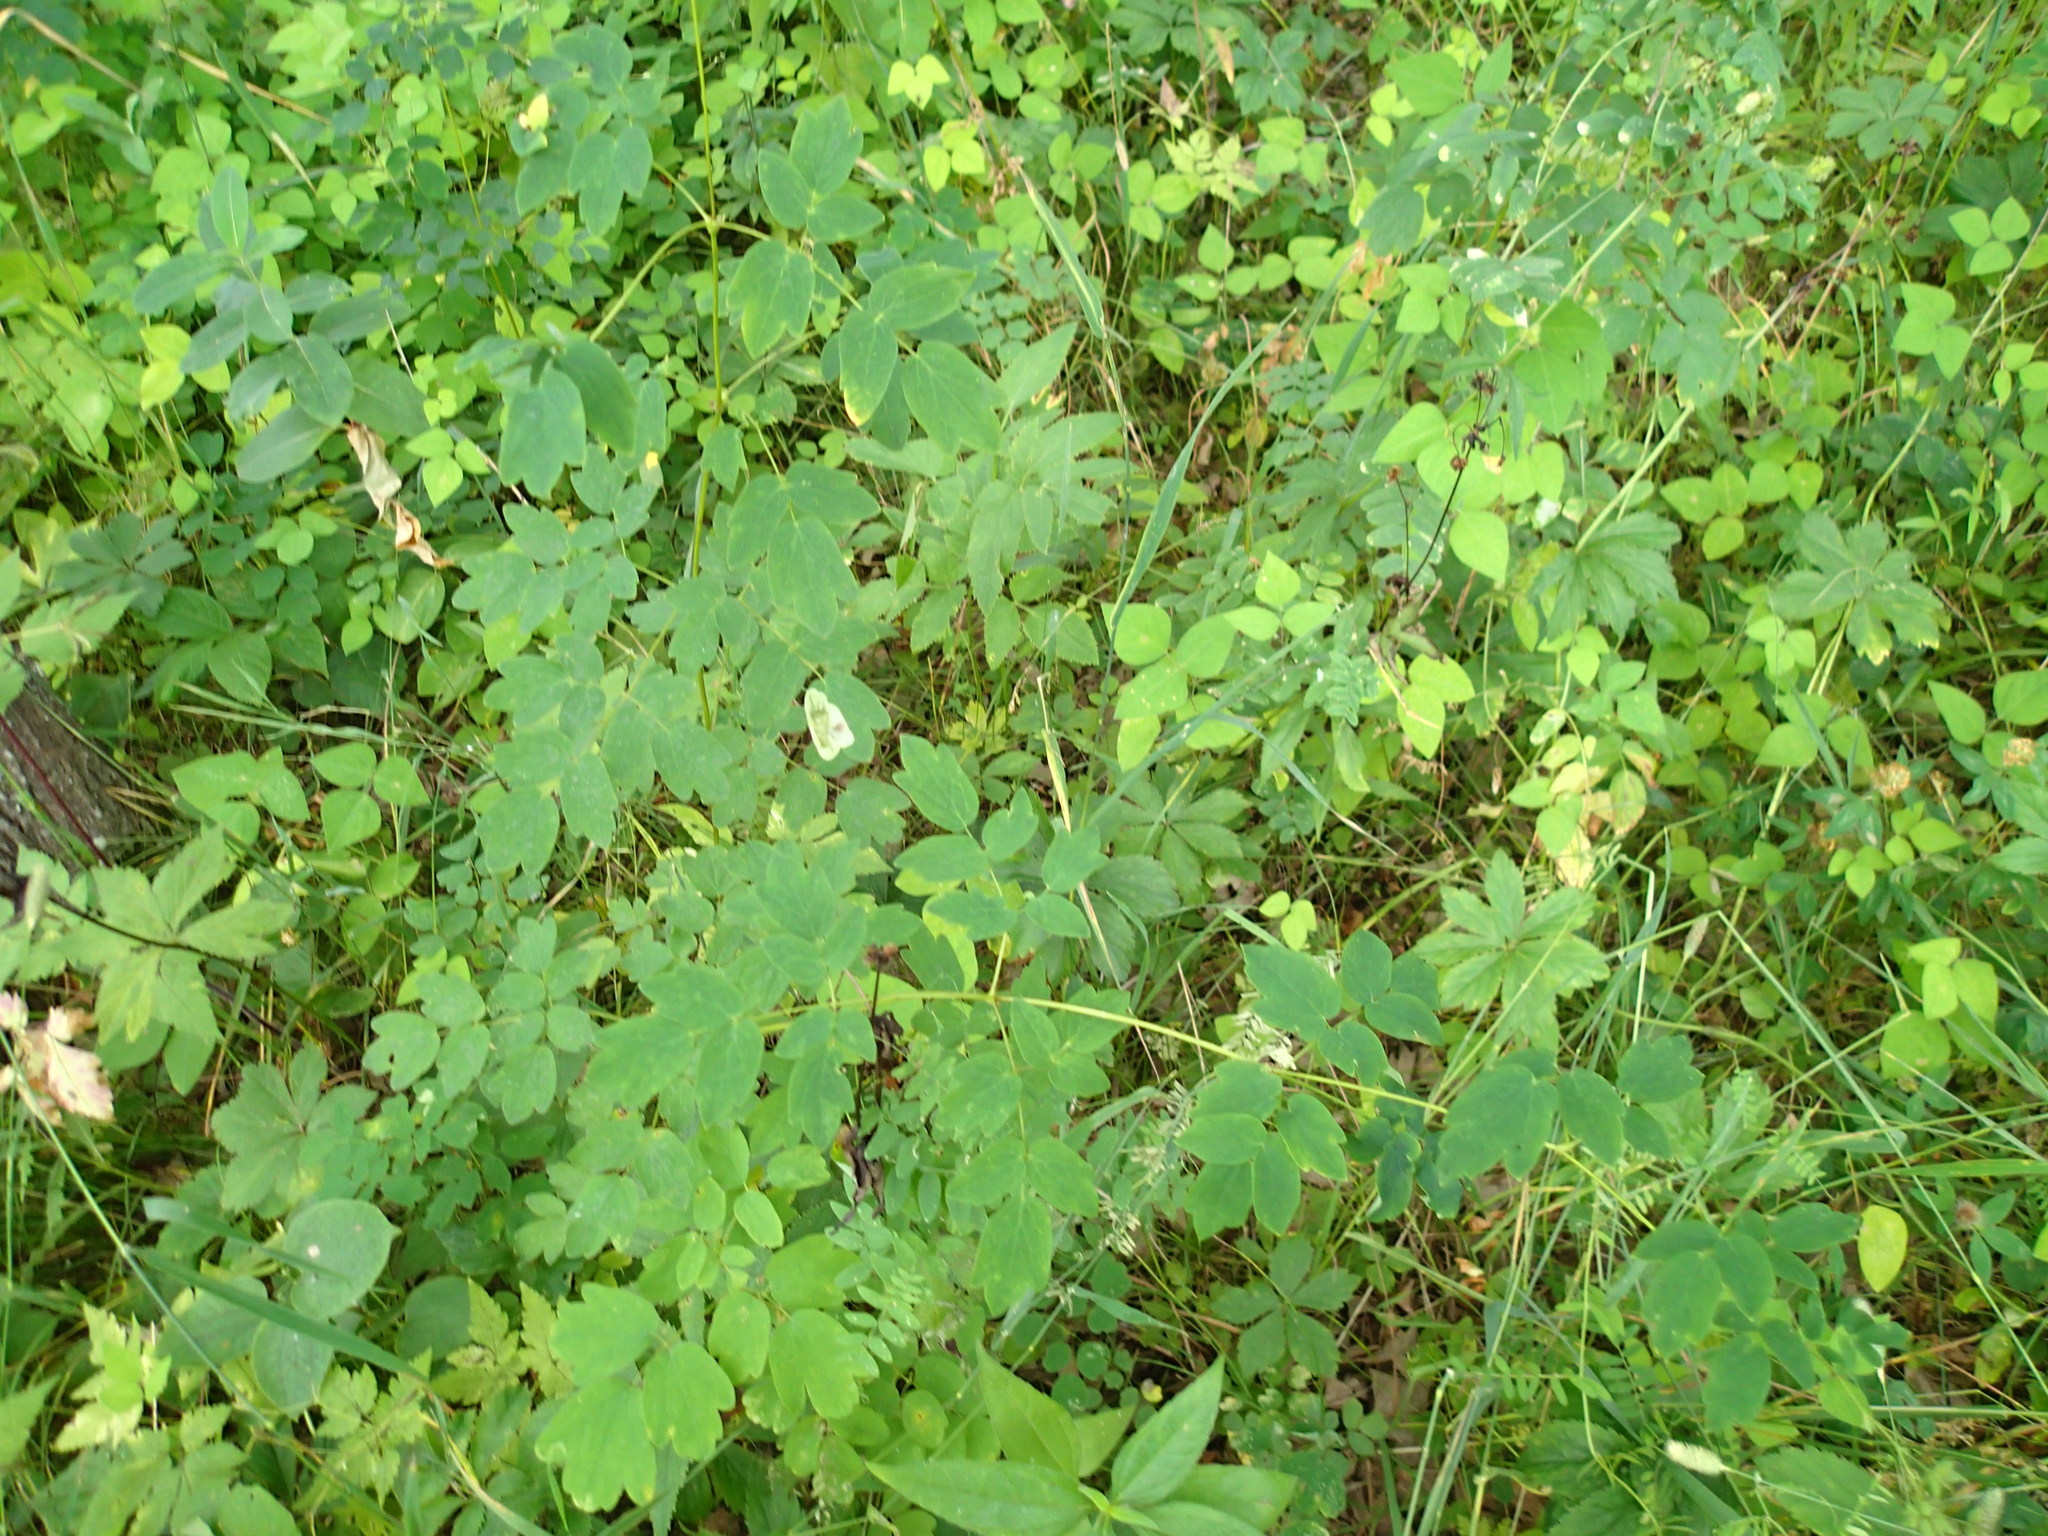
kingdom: Plantae
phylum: Tracheophyta
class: Magnoliopsida
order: Ranunculales
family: Ranunculaceae
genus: Thalictrum
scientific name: Thalictrum dasycarpum
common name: Purple meadow-rue
